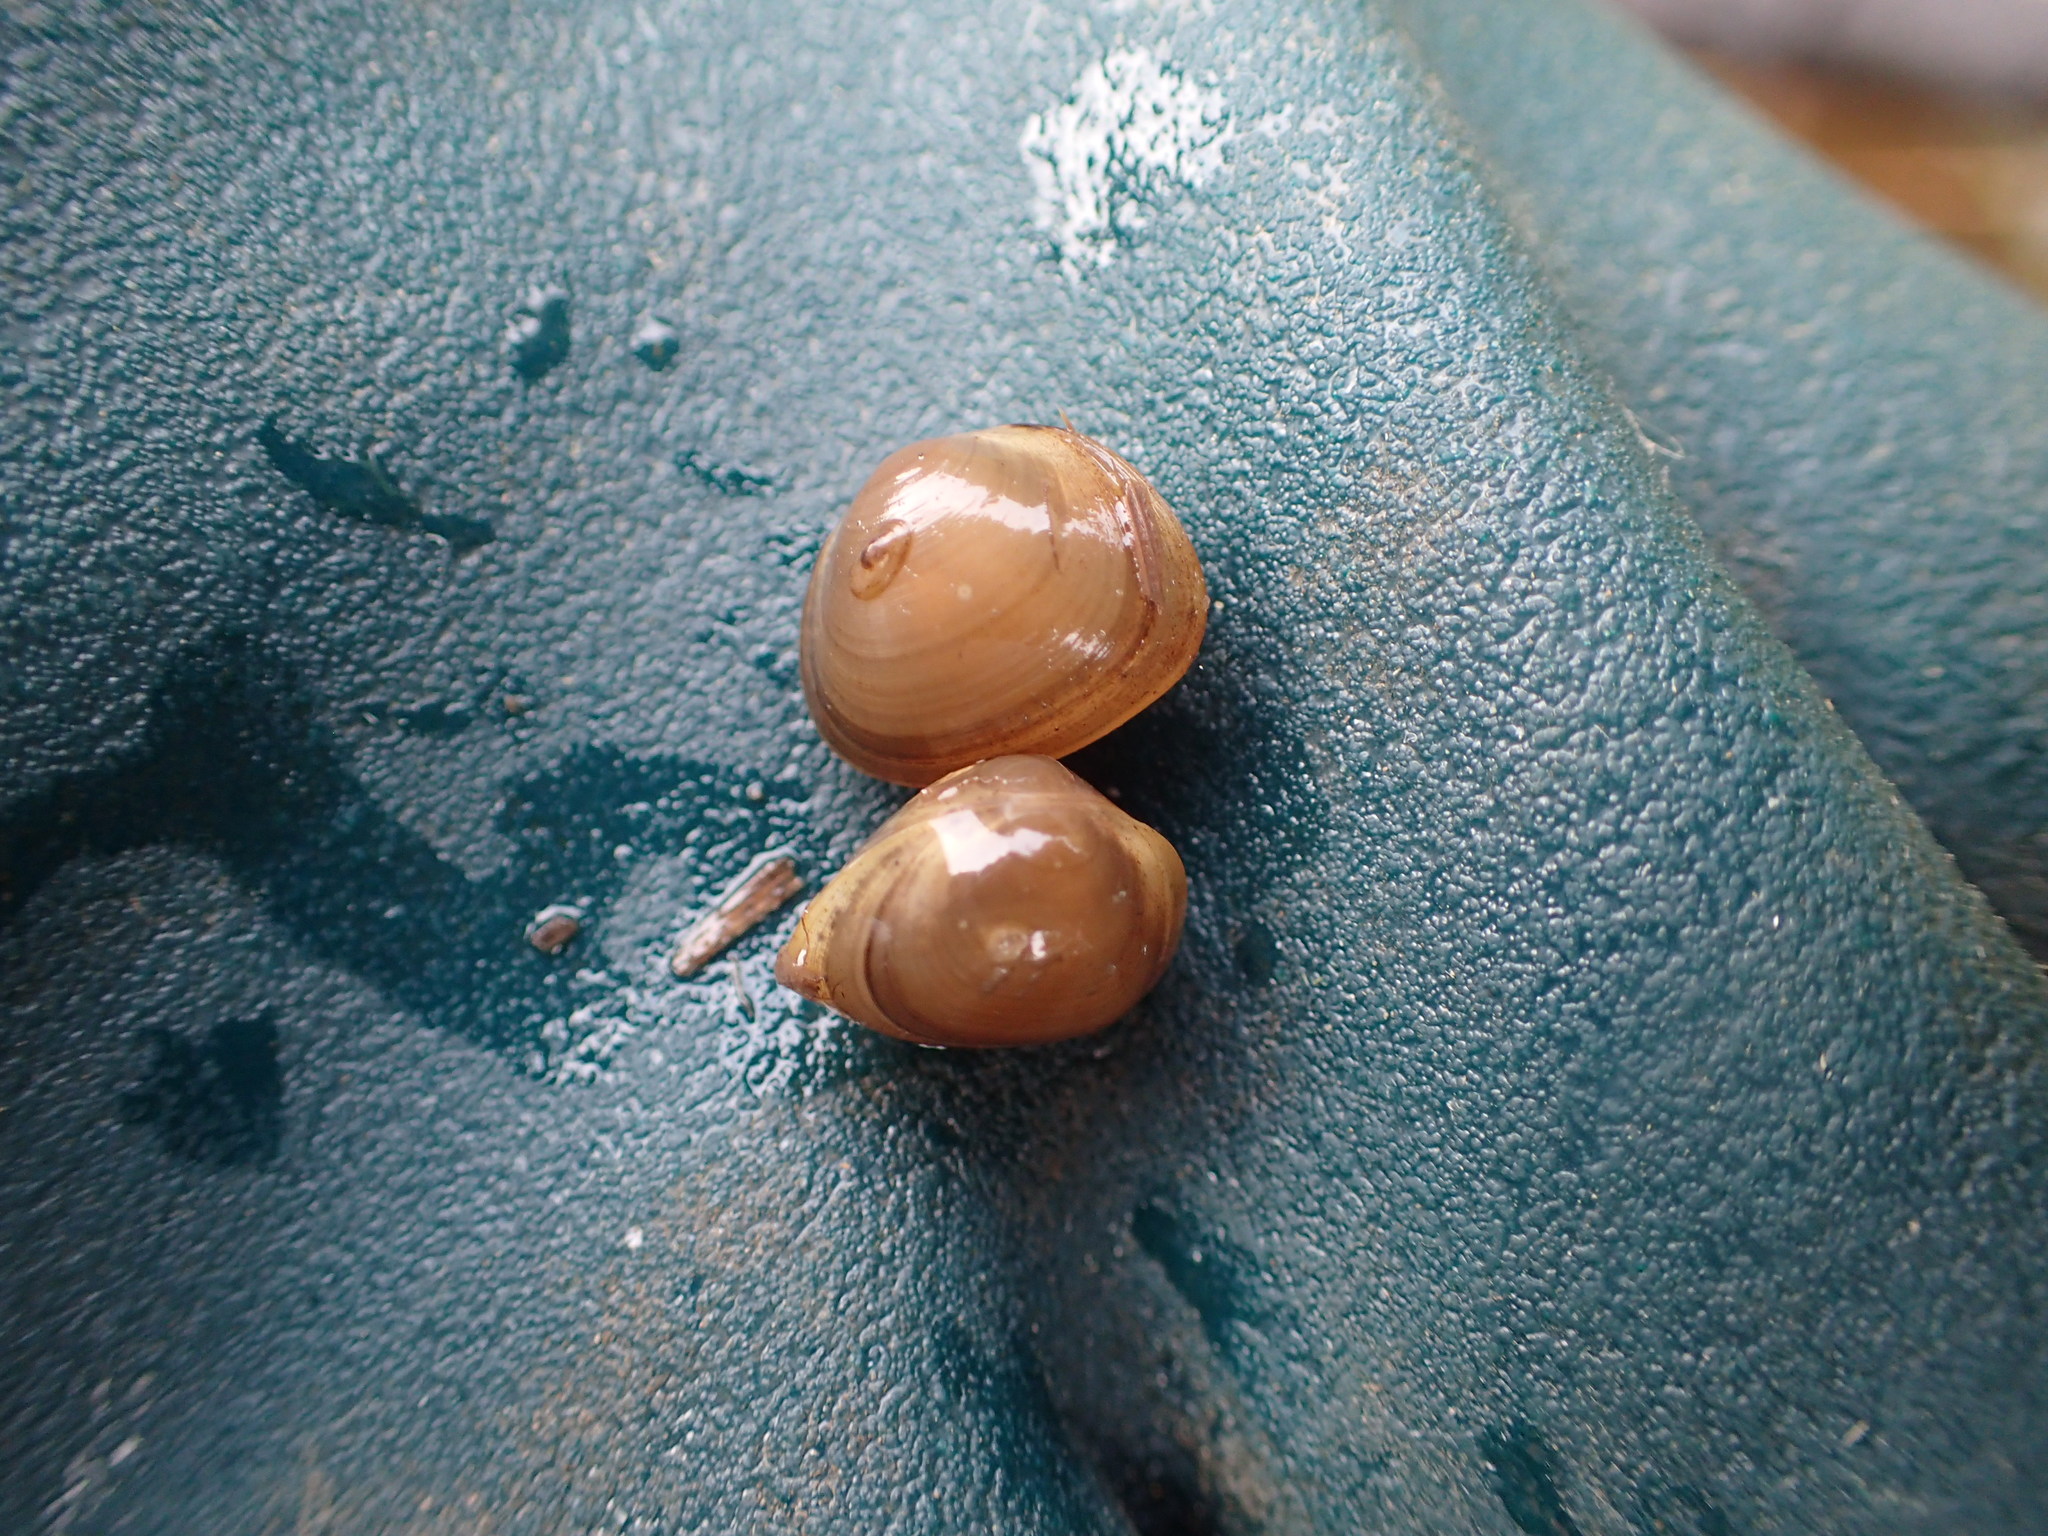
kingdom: Animalia
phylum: Mollusca
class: Bivalvia
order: Sphaeriida
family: Sphaeriidae
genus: Sphaerium
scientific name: Sphaerium rhomboideum
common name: Rhomboid fingernailclam
